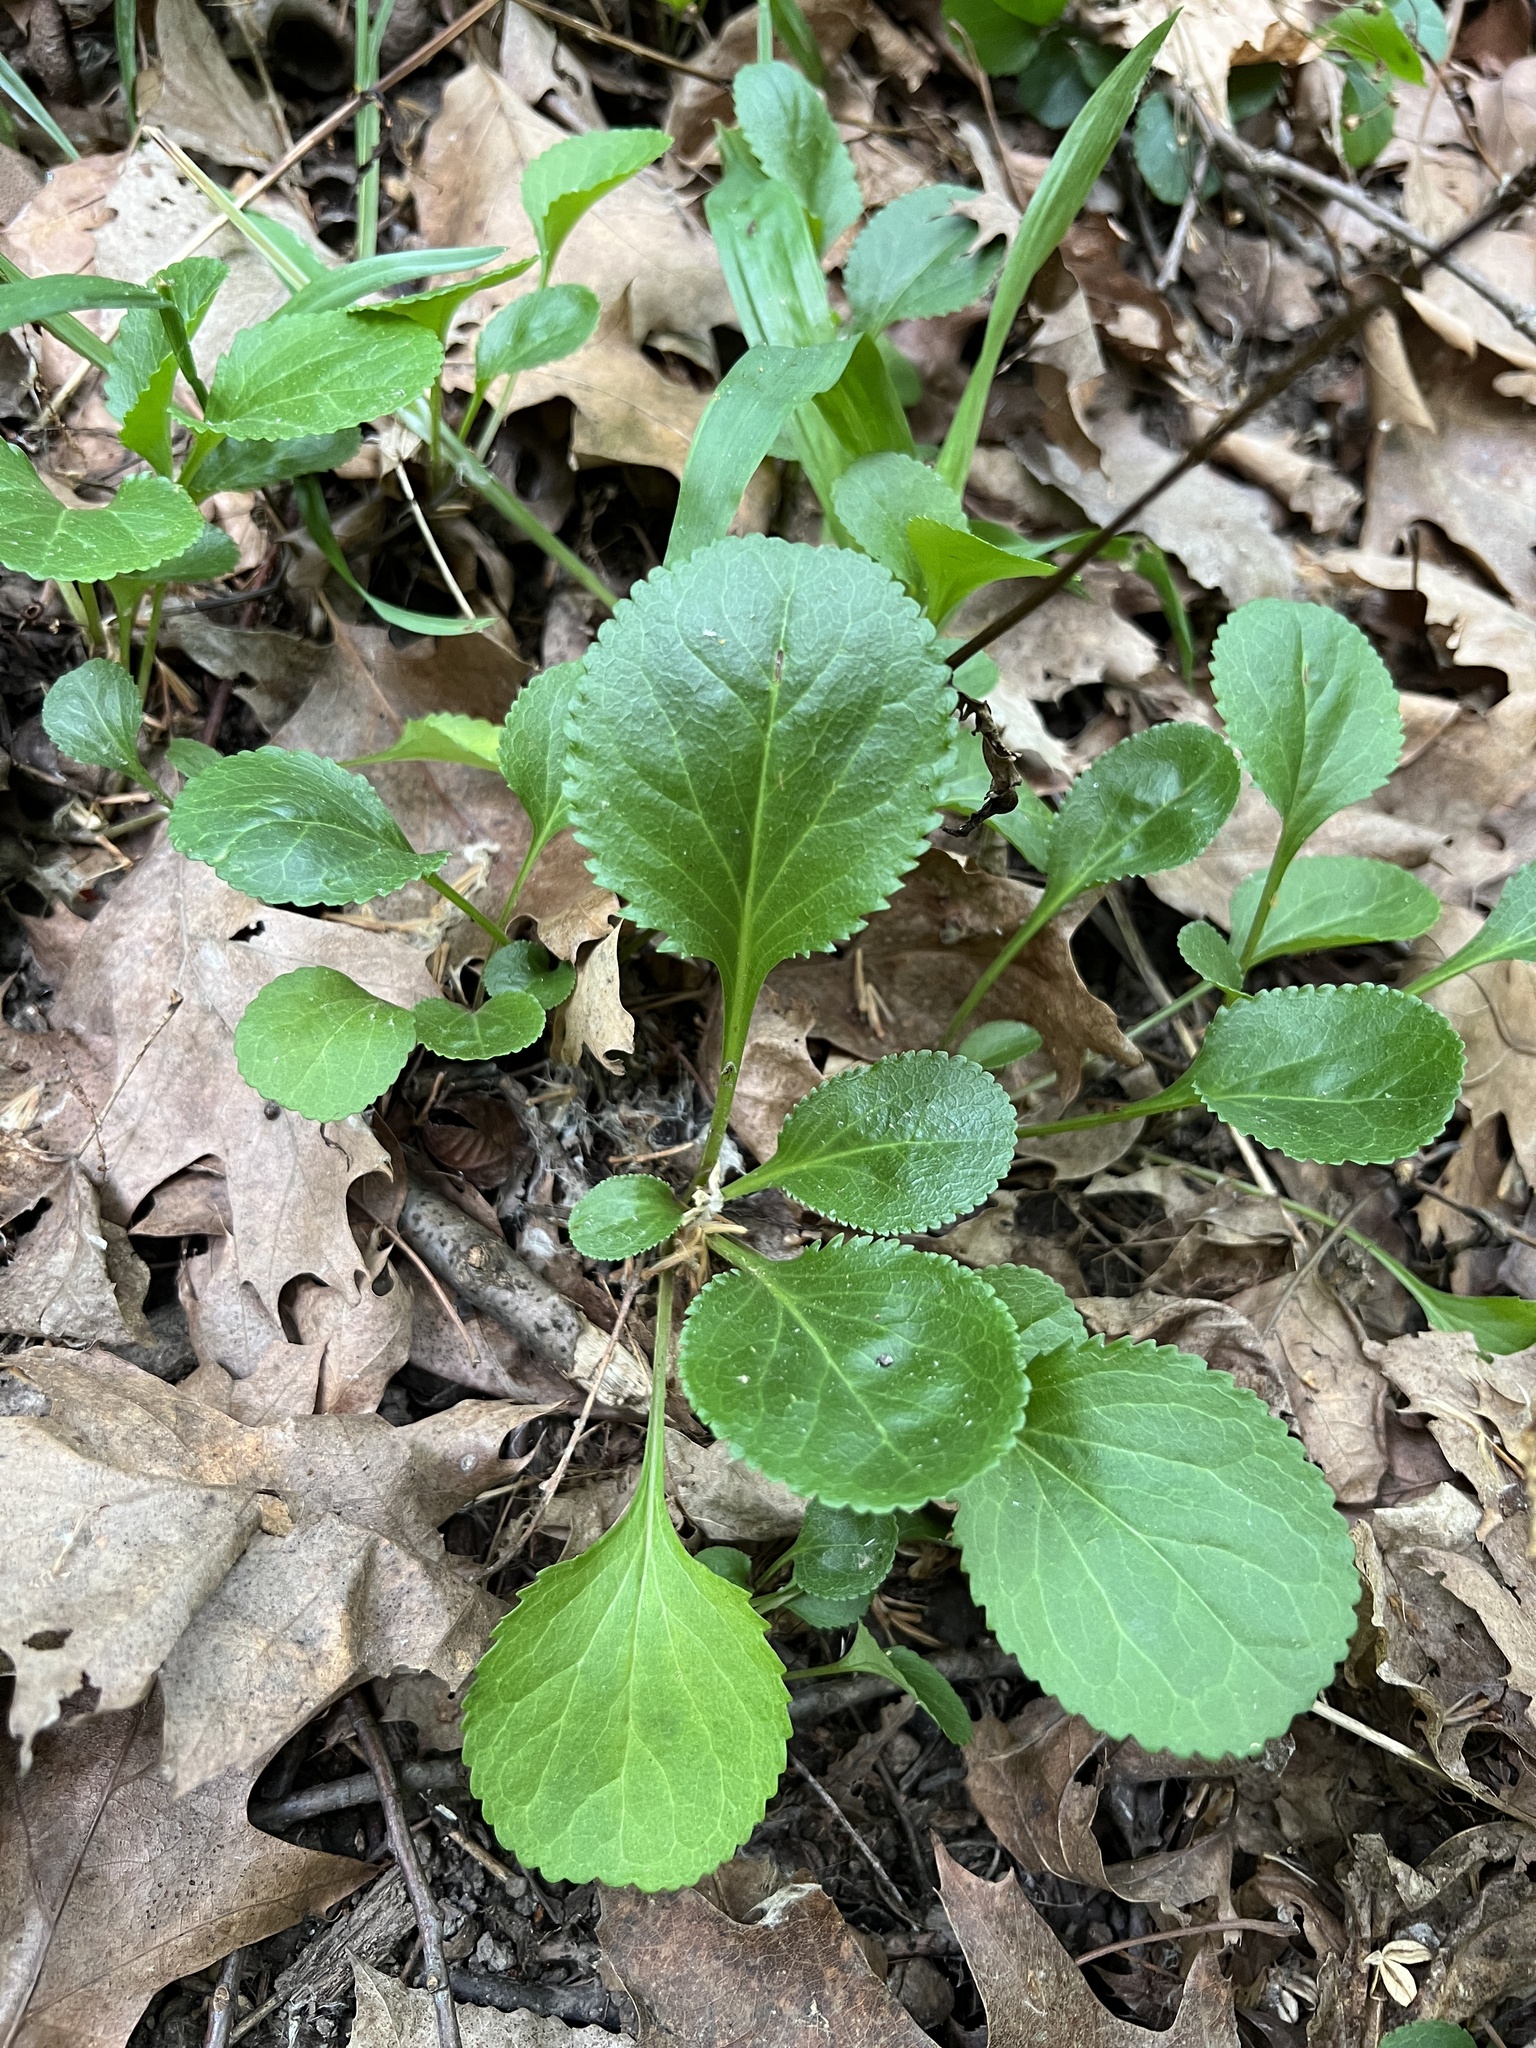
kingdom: Plantae
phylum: Tracheophyta
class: Magnoliopsida
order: Asterales
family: Asteraceae
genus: Packera
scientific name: Packera obovata
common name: Round-leaf ragwort
